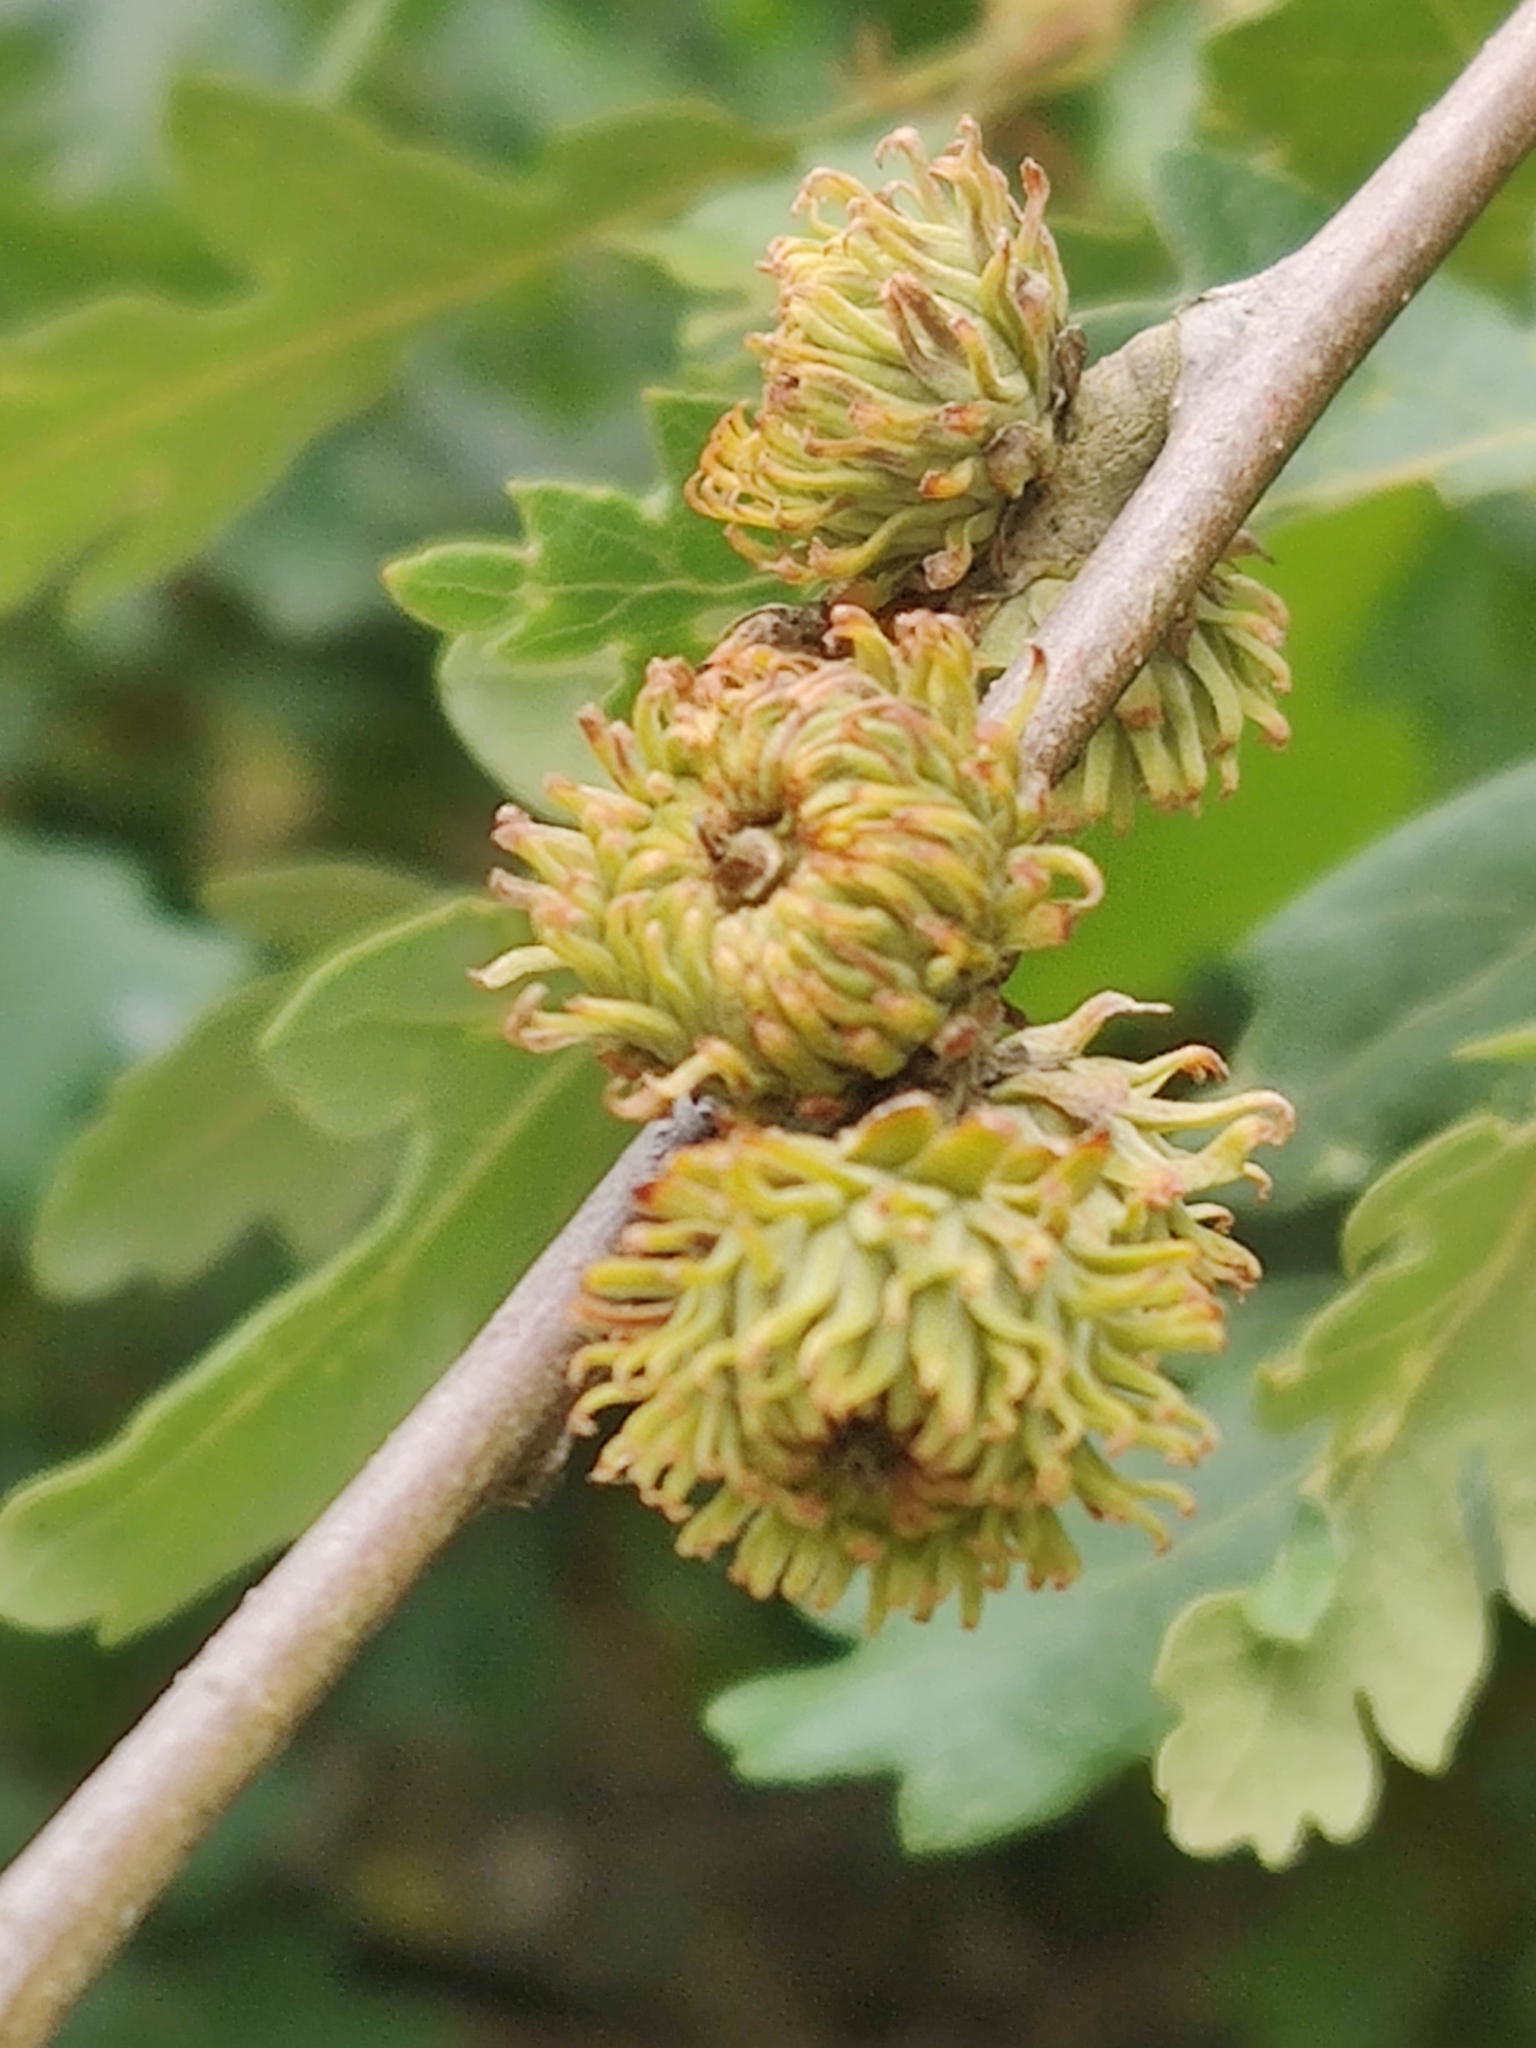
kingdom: Plantae
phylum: Tracheophyta
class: Magnoliopsida
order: Fagales
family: Fagaceae
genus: Quercus
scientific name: Quercus cerris
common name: Turkey oak
